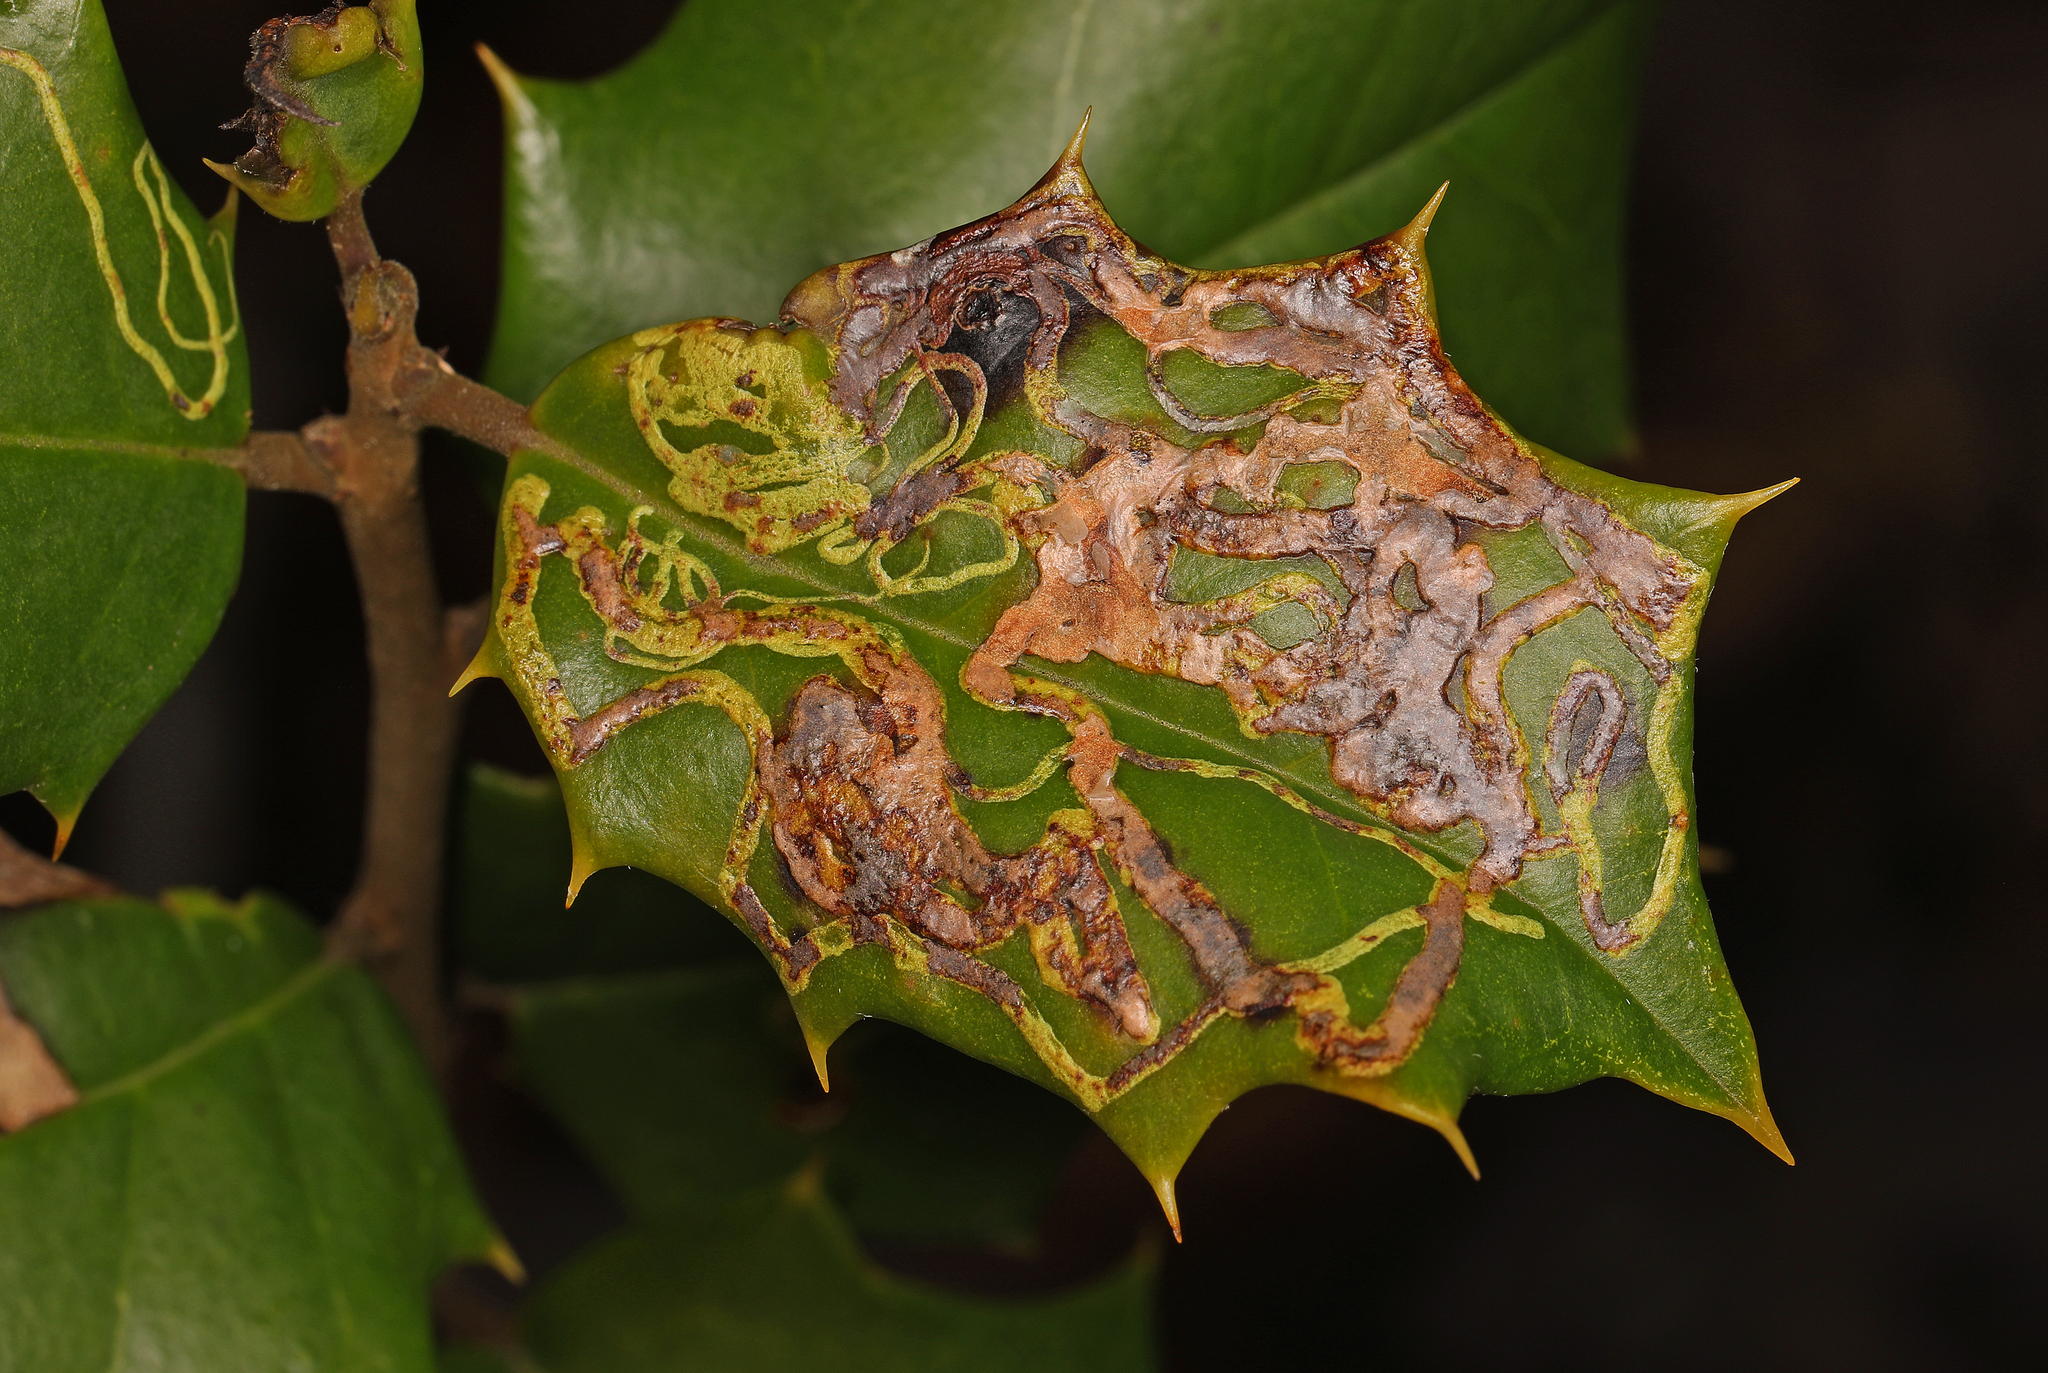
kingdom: Animalia
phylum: Arthropoda
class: Insecta
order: Diptera
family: Agromyzidae
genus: Phytomyza
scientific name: Phytomyza opacae
